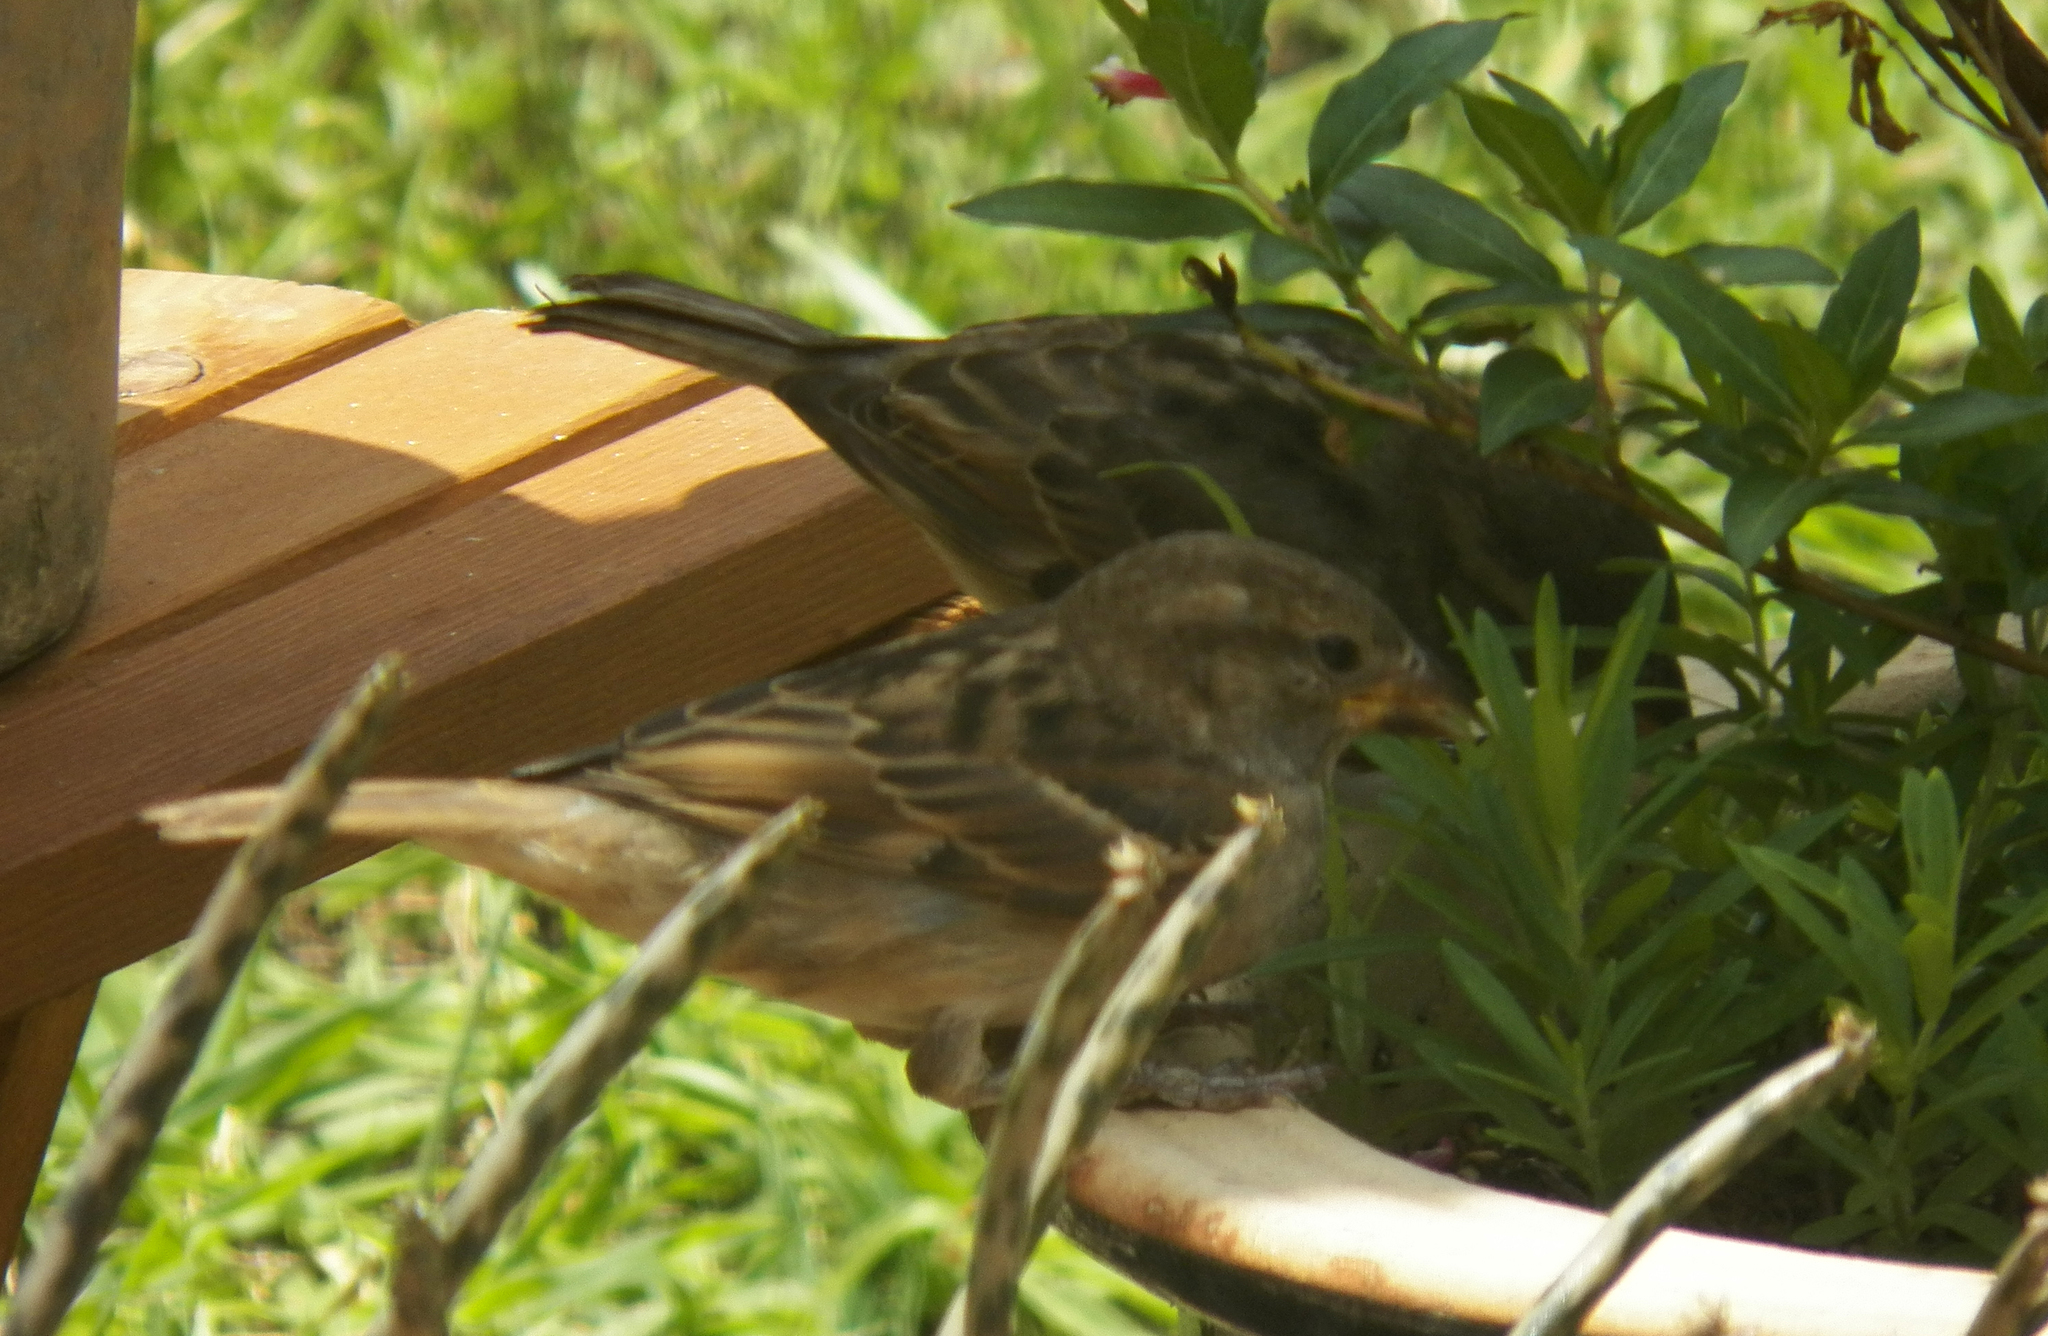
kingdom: Animalia
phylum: Chordata
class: Aves
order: Passeriformes
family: Passeridae
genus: Passer
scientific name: Passer domesticus
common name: House sparrow
